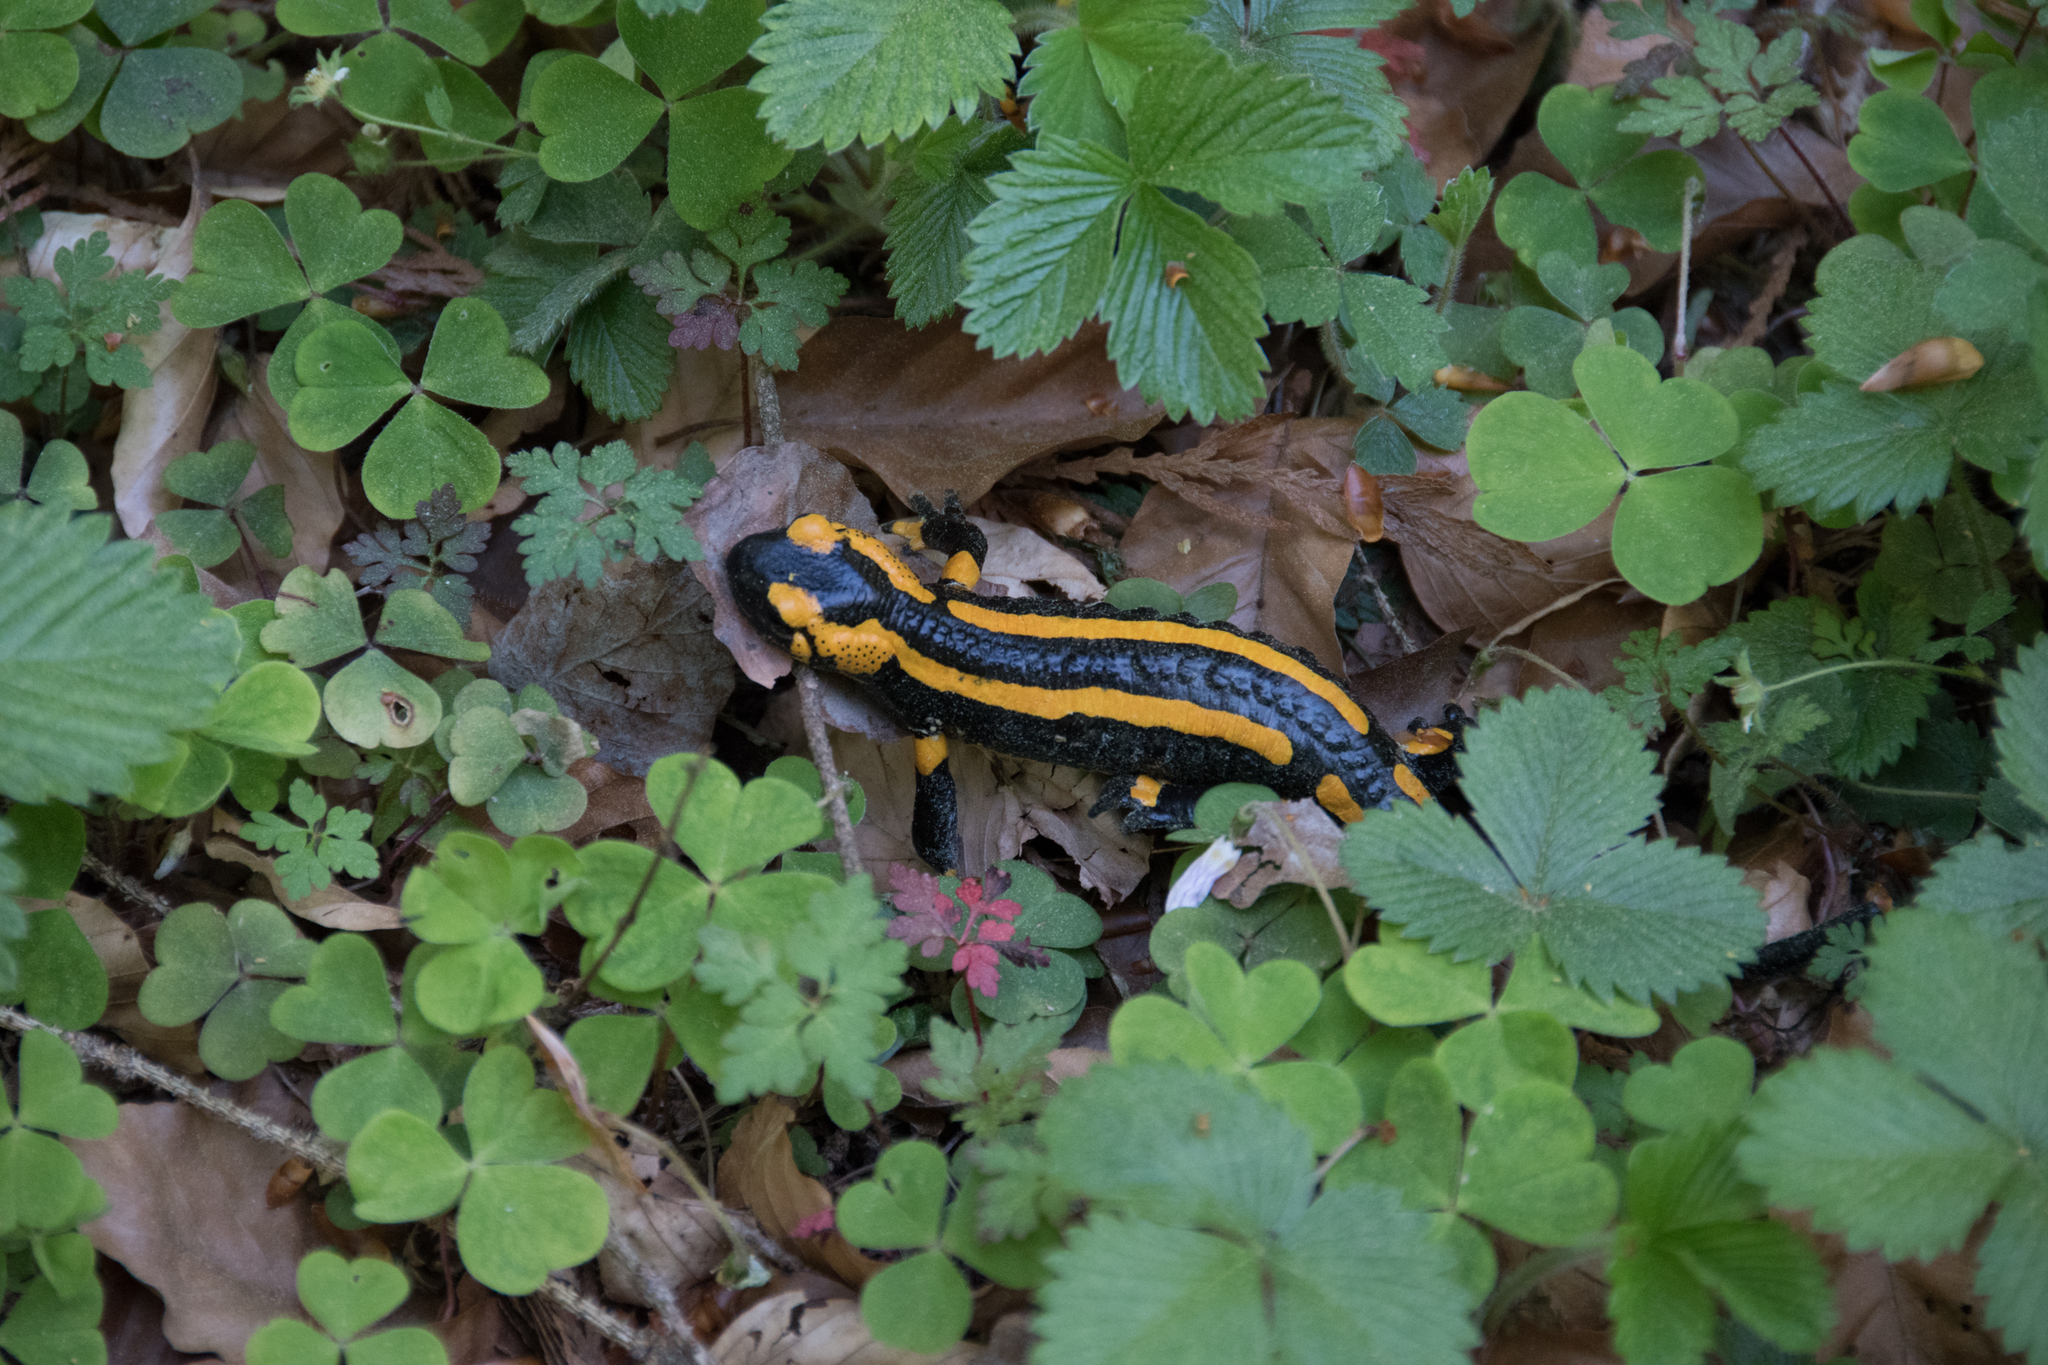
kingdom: Animalia
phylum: Chordata
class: Amphibia
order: Caudata
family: Salamandridae
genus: Salamandra
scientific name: Salamandra salamandra
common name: Fire salamander
